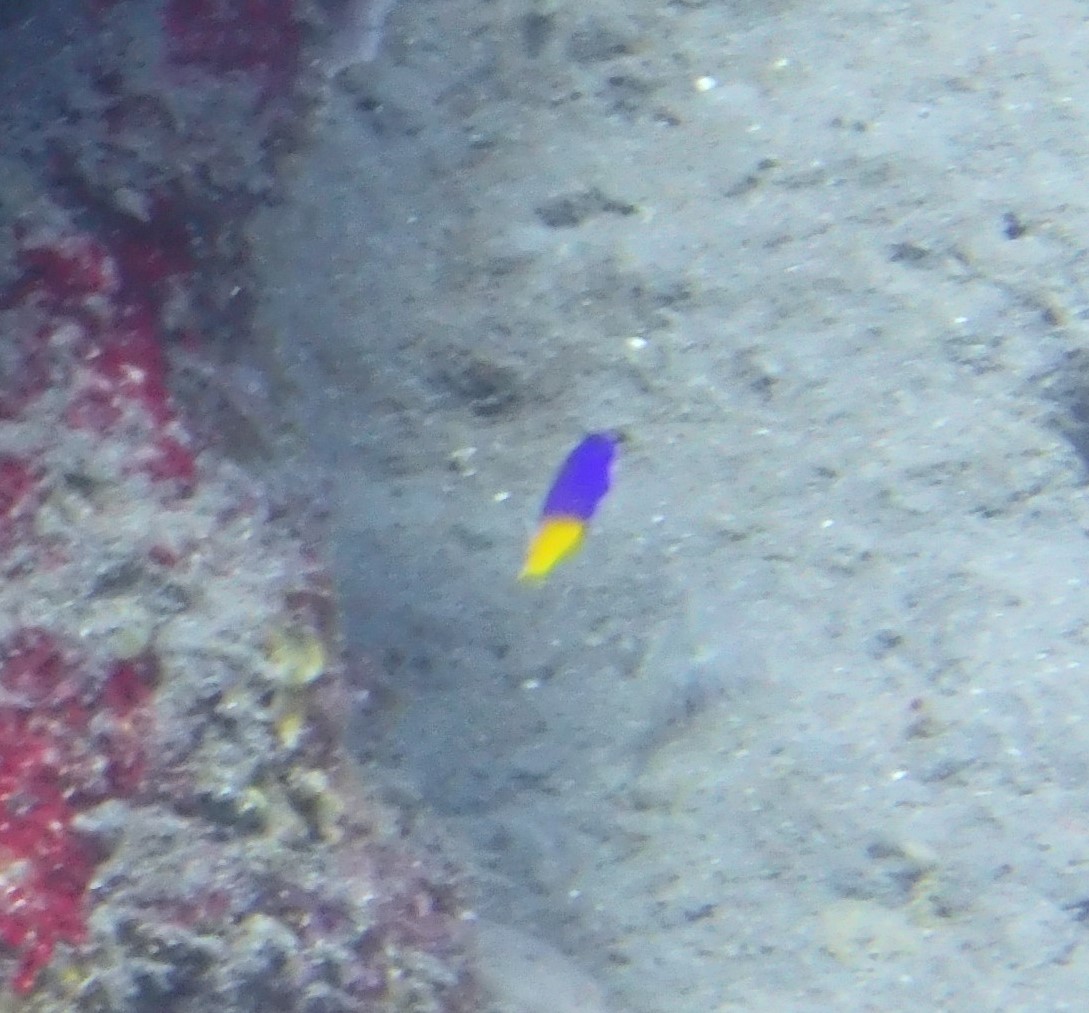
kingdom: Animalia
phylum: Chordata
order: Perciformes
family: Grammatidae
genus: Gramma
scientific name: Gramma loreto
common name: Fairy basslet
